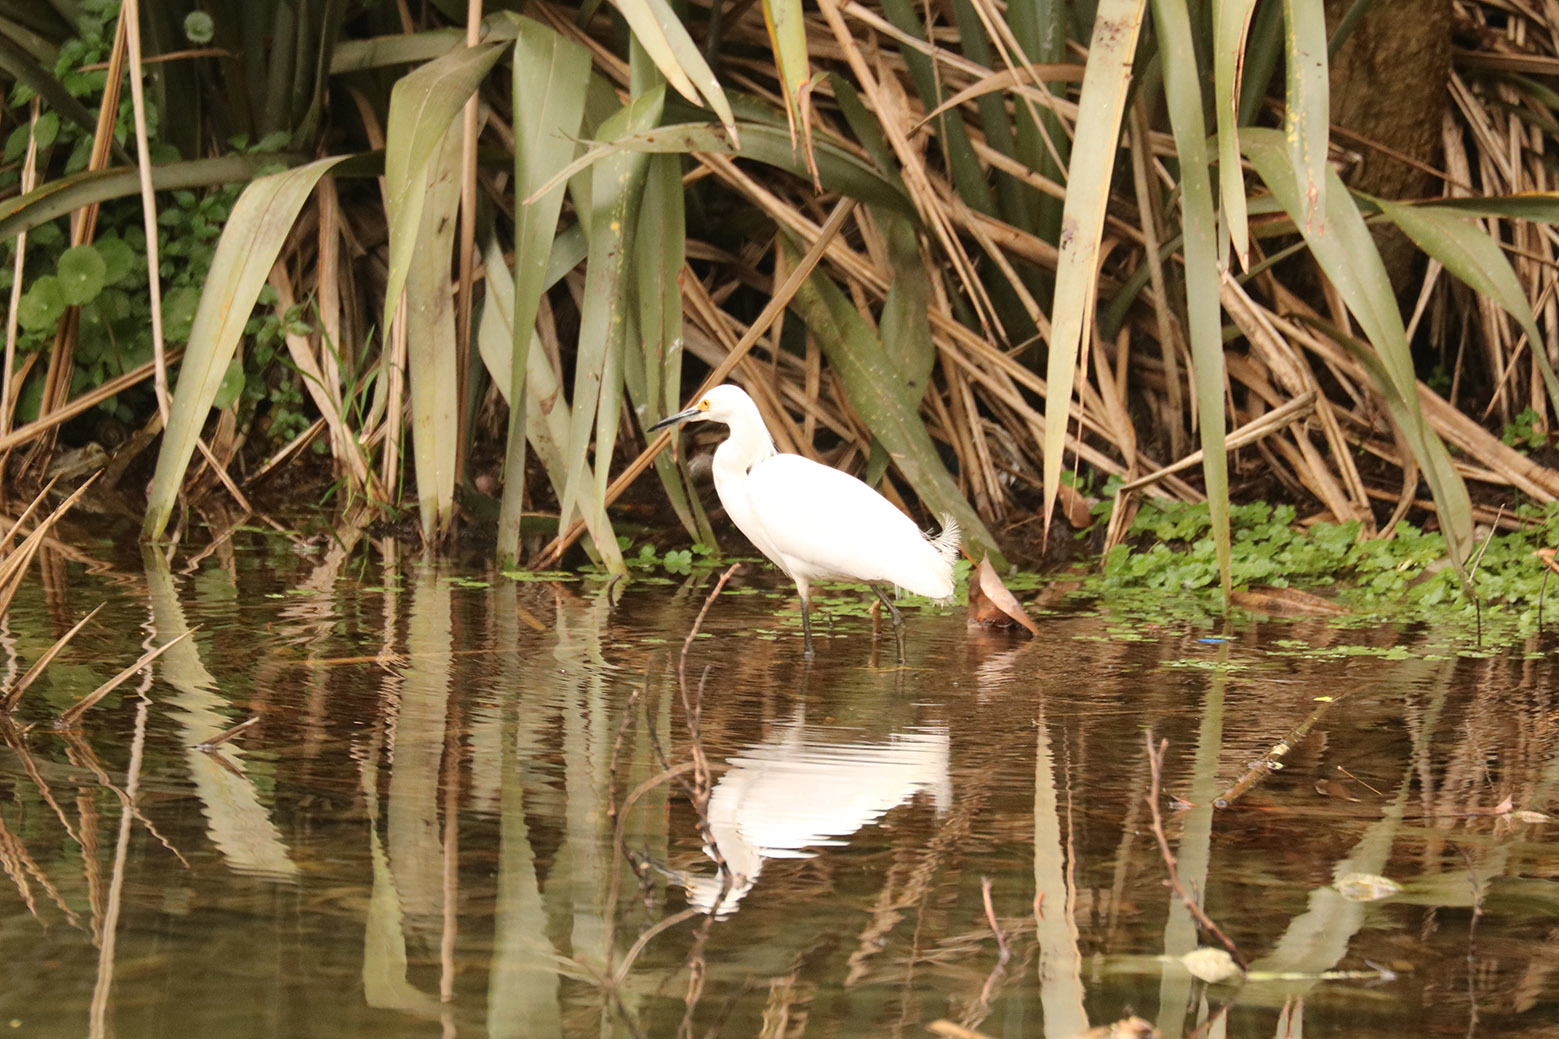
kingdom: Animalia
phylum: Chordata
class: Aves
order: Pelecaniformes
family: Ardeidae
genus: Egretta
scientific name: Egretta thula
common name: Snowy egret
